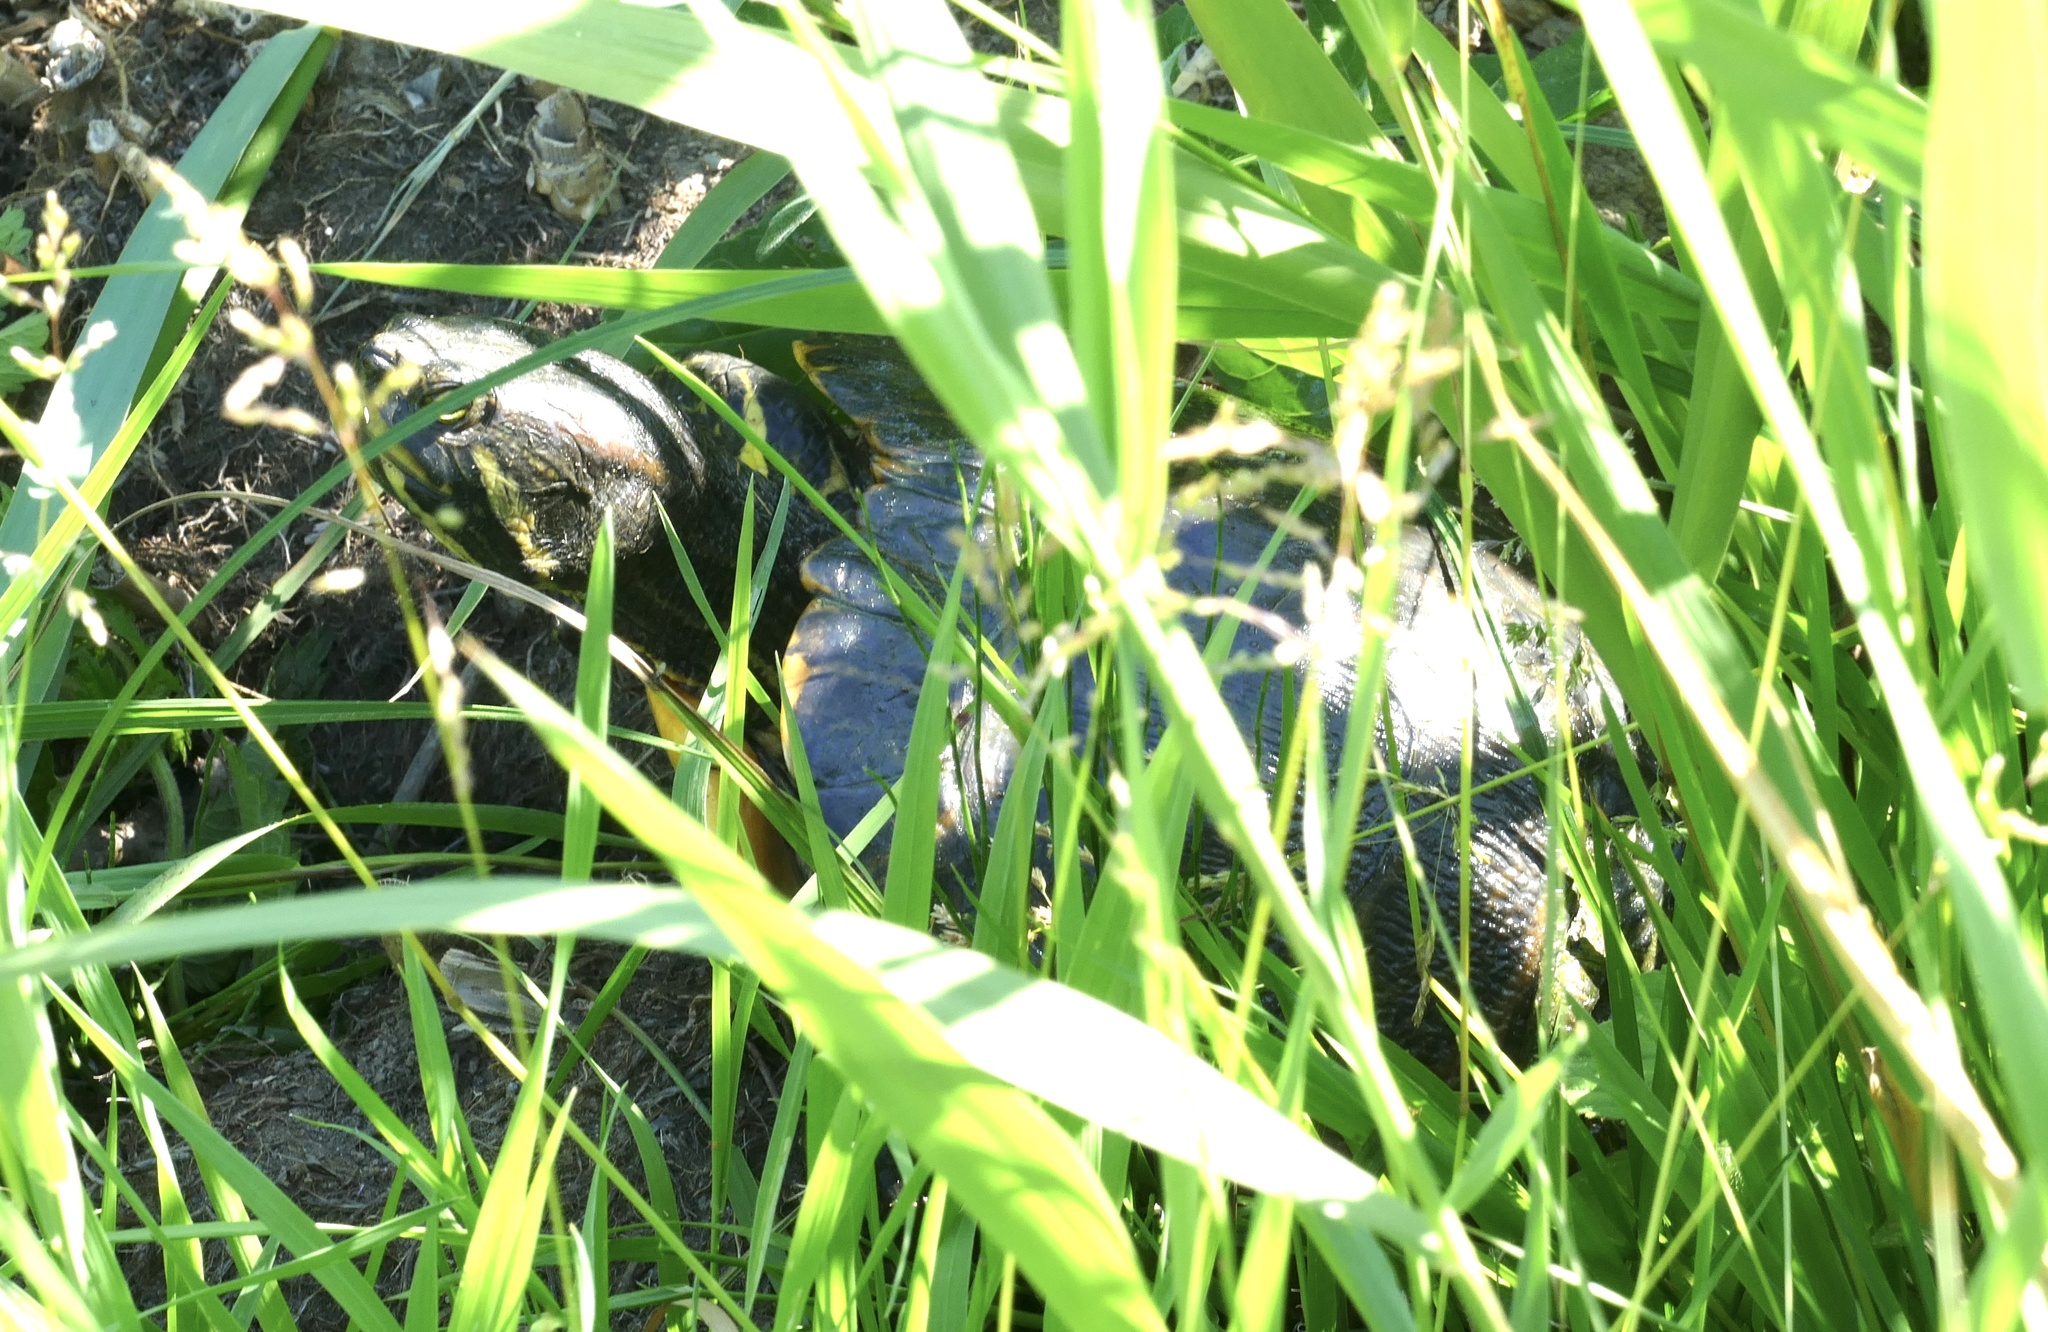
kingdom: Animalia
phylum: Chordata
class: Testudines
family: Emydidae
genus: Trachemys
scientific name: Trachemys scripta
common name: Slider
